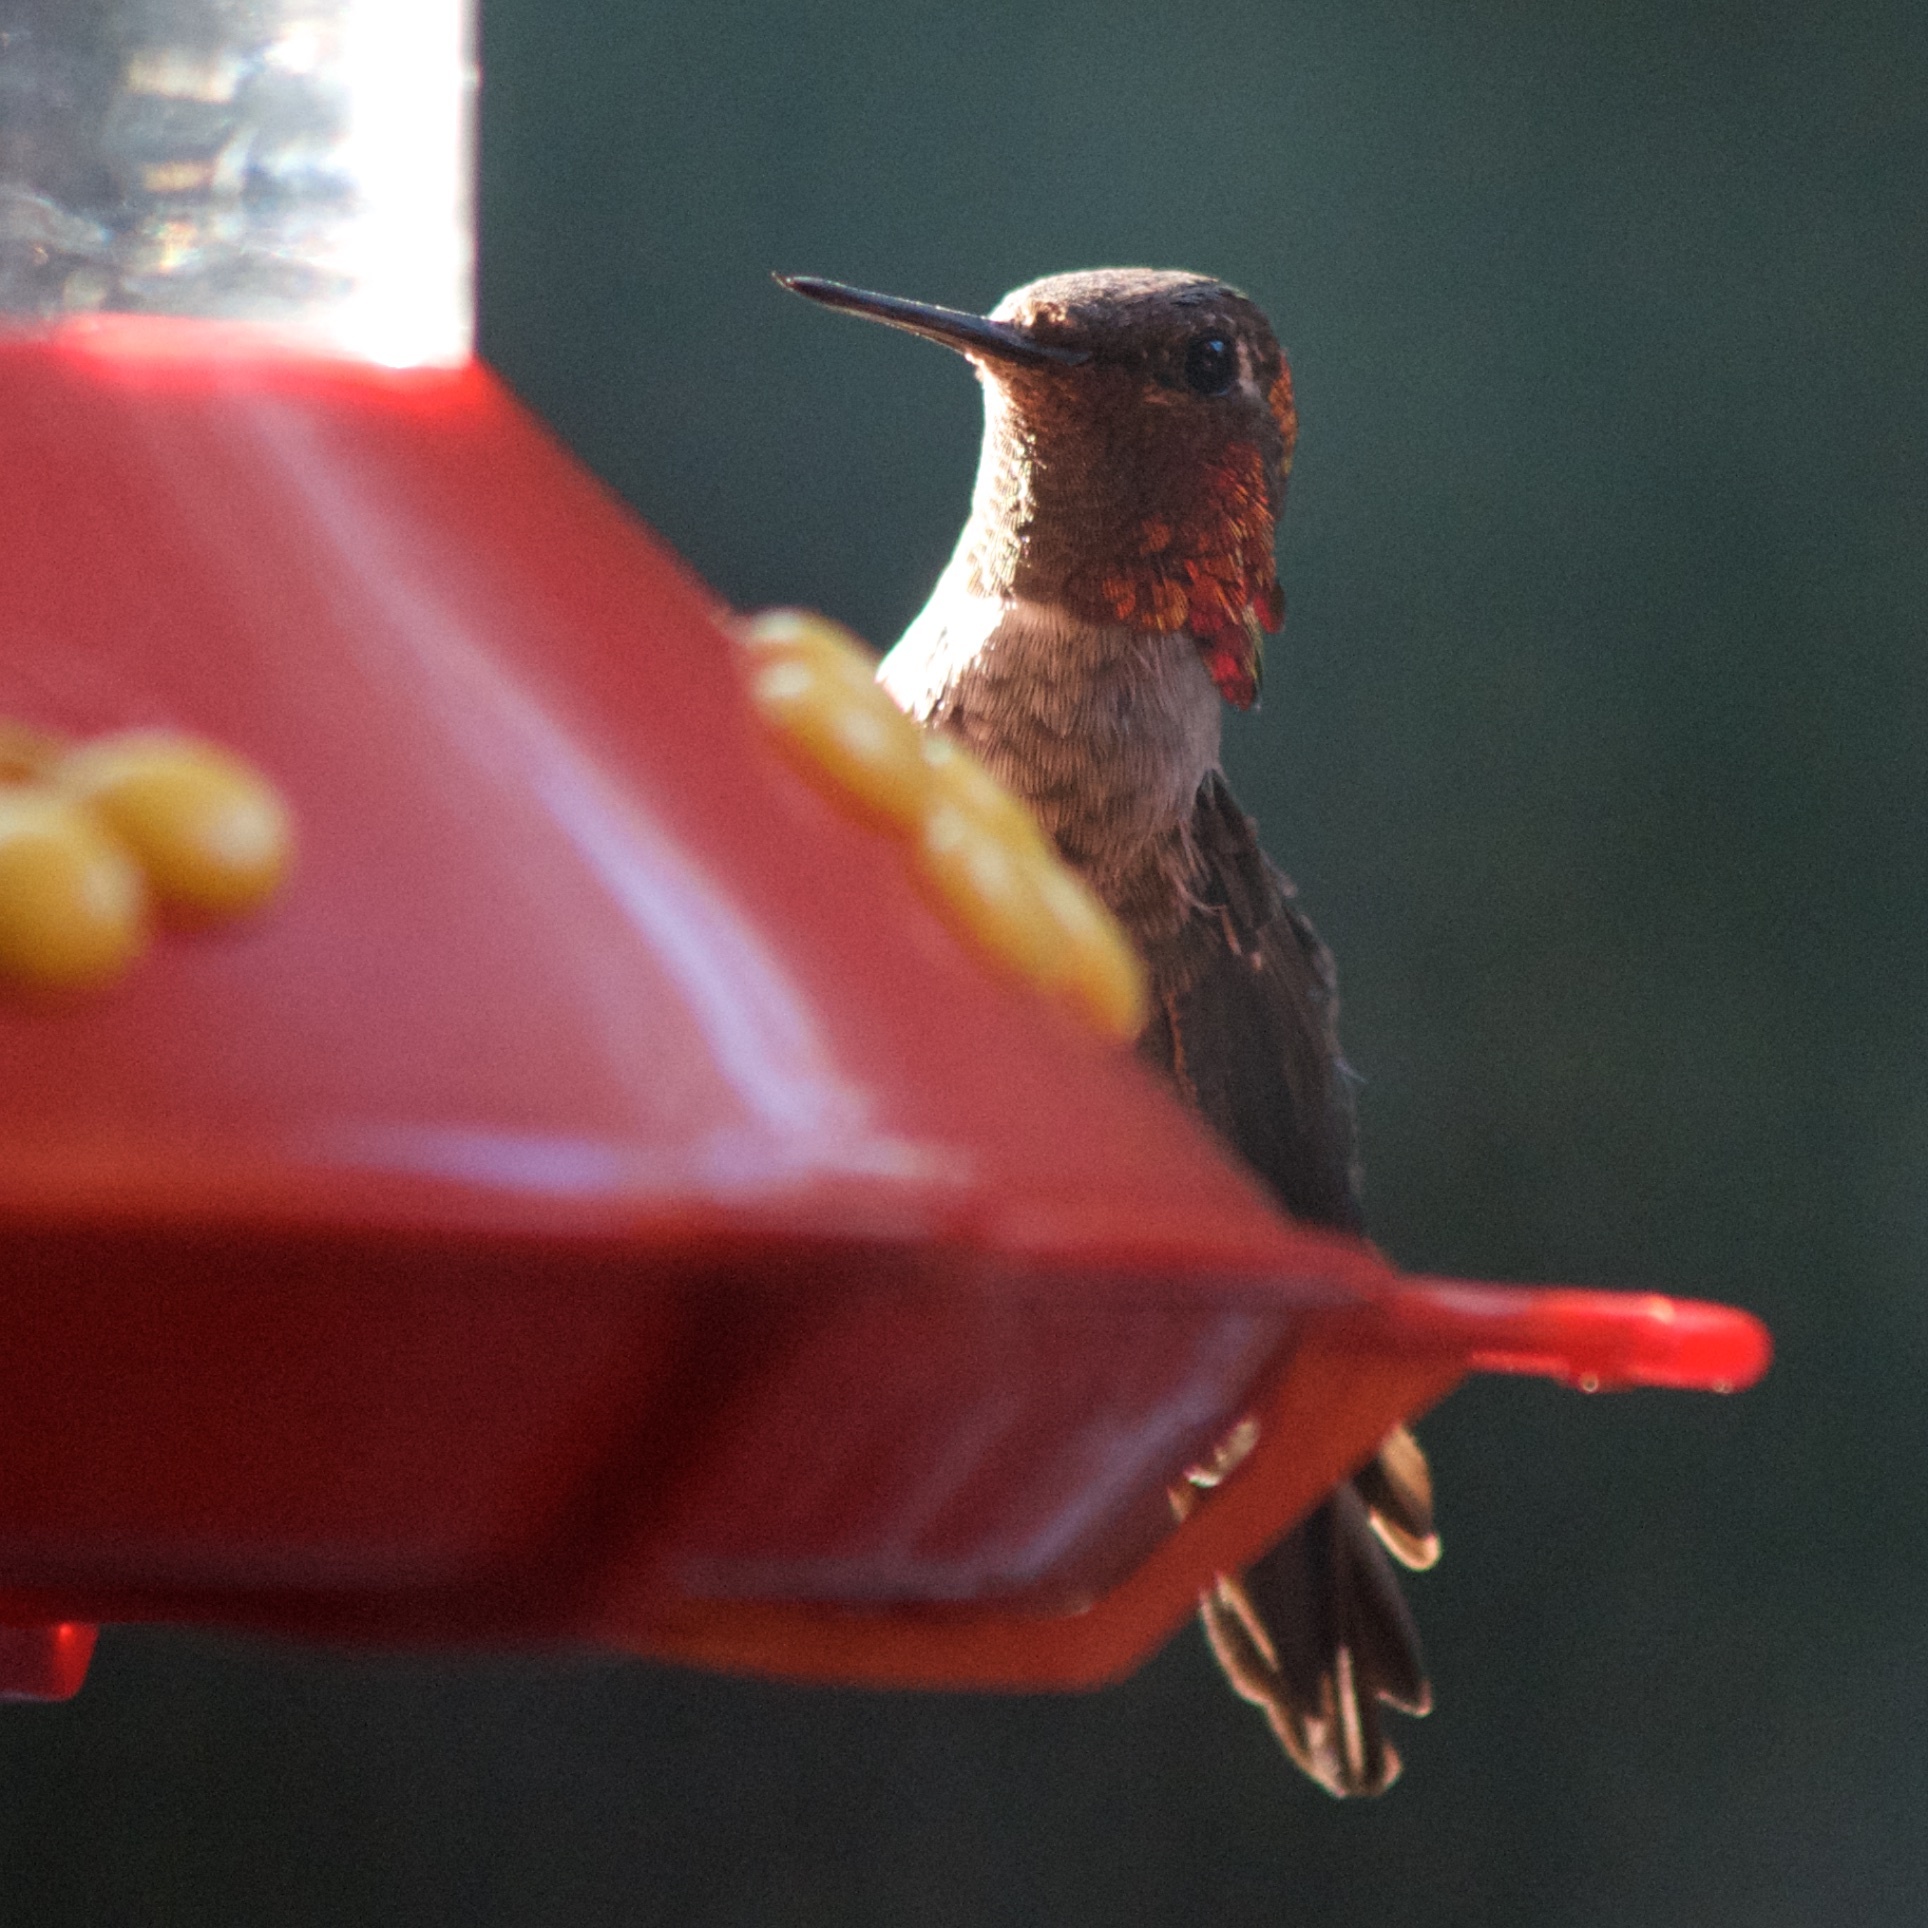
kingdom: Animalia
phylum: Chordata
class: Aves
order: Apodiformes
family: Trochilidae
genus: Calypte
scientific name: Calypte anna
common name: Anna's hummingbird
